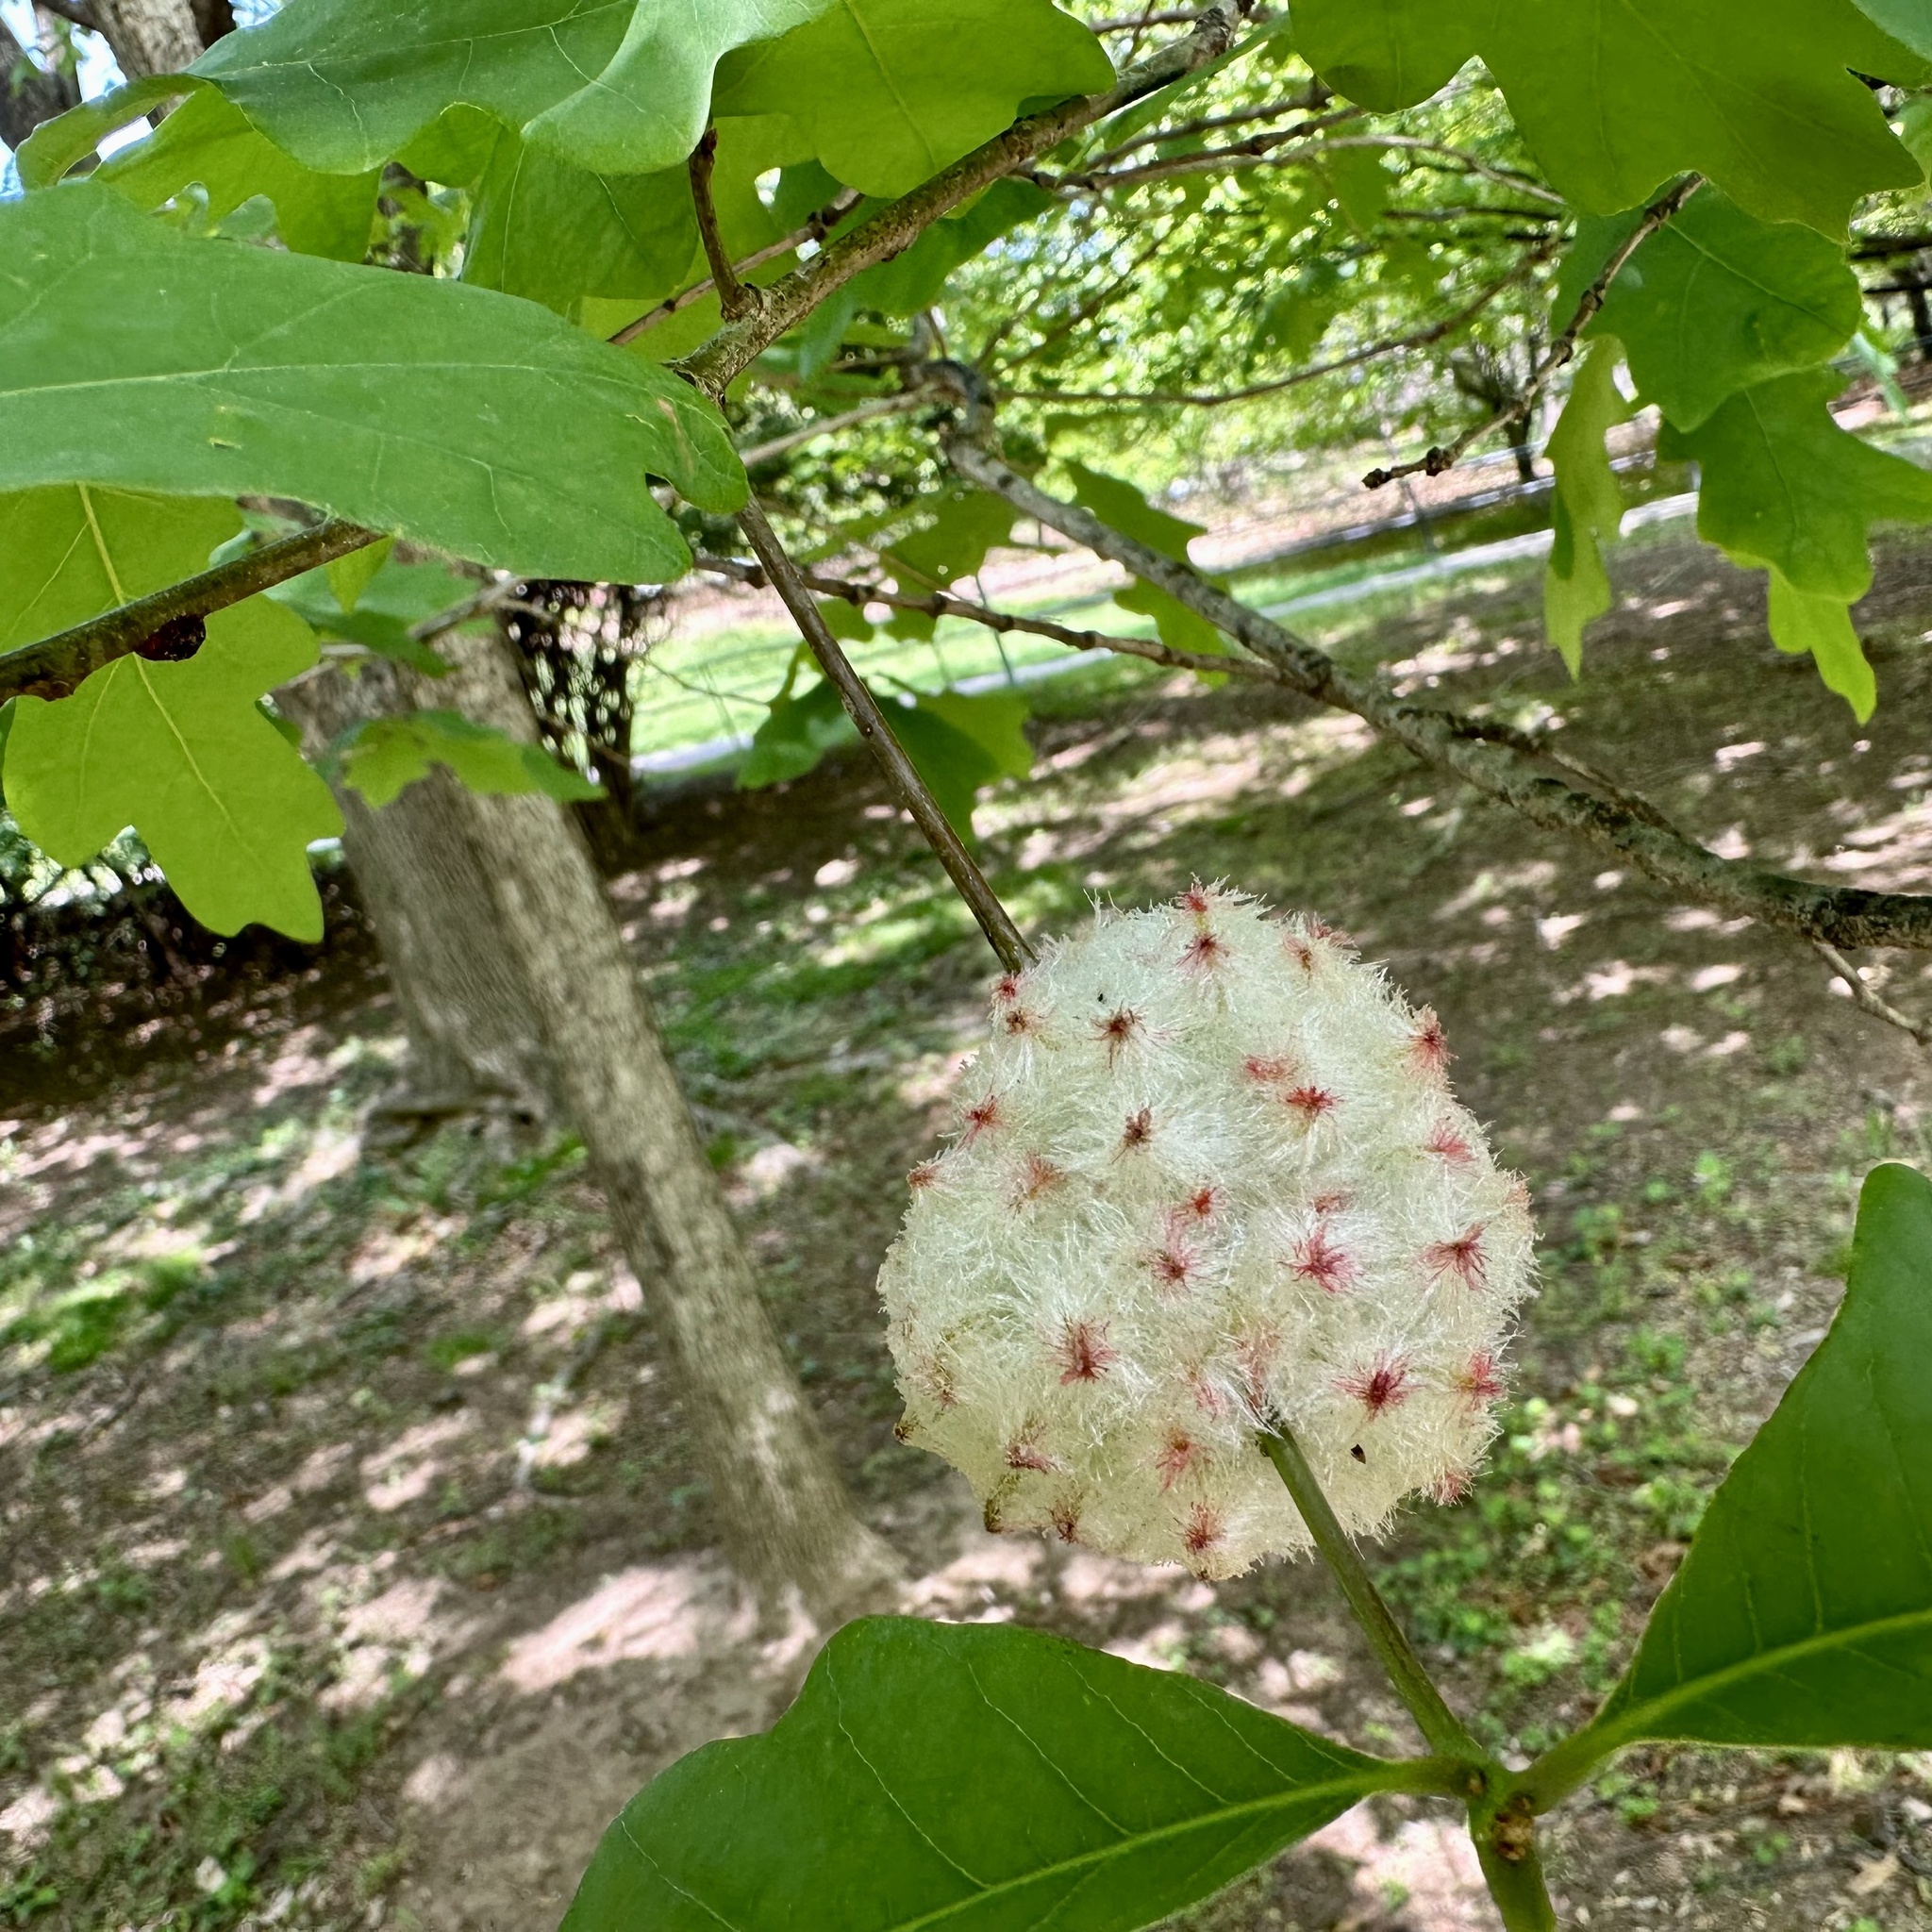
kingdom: Animalia
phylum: Arthropoda
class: Insecta
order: Hymenoptera
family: Cynipidae
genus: Callirhytis
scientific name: Callirhytis
